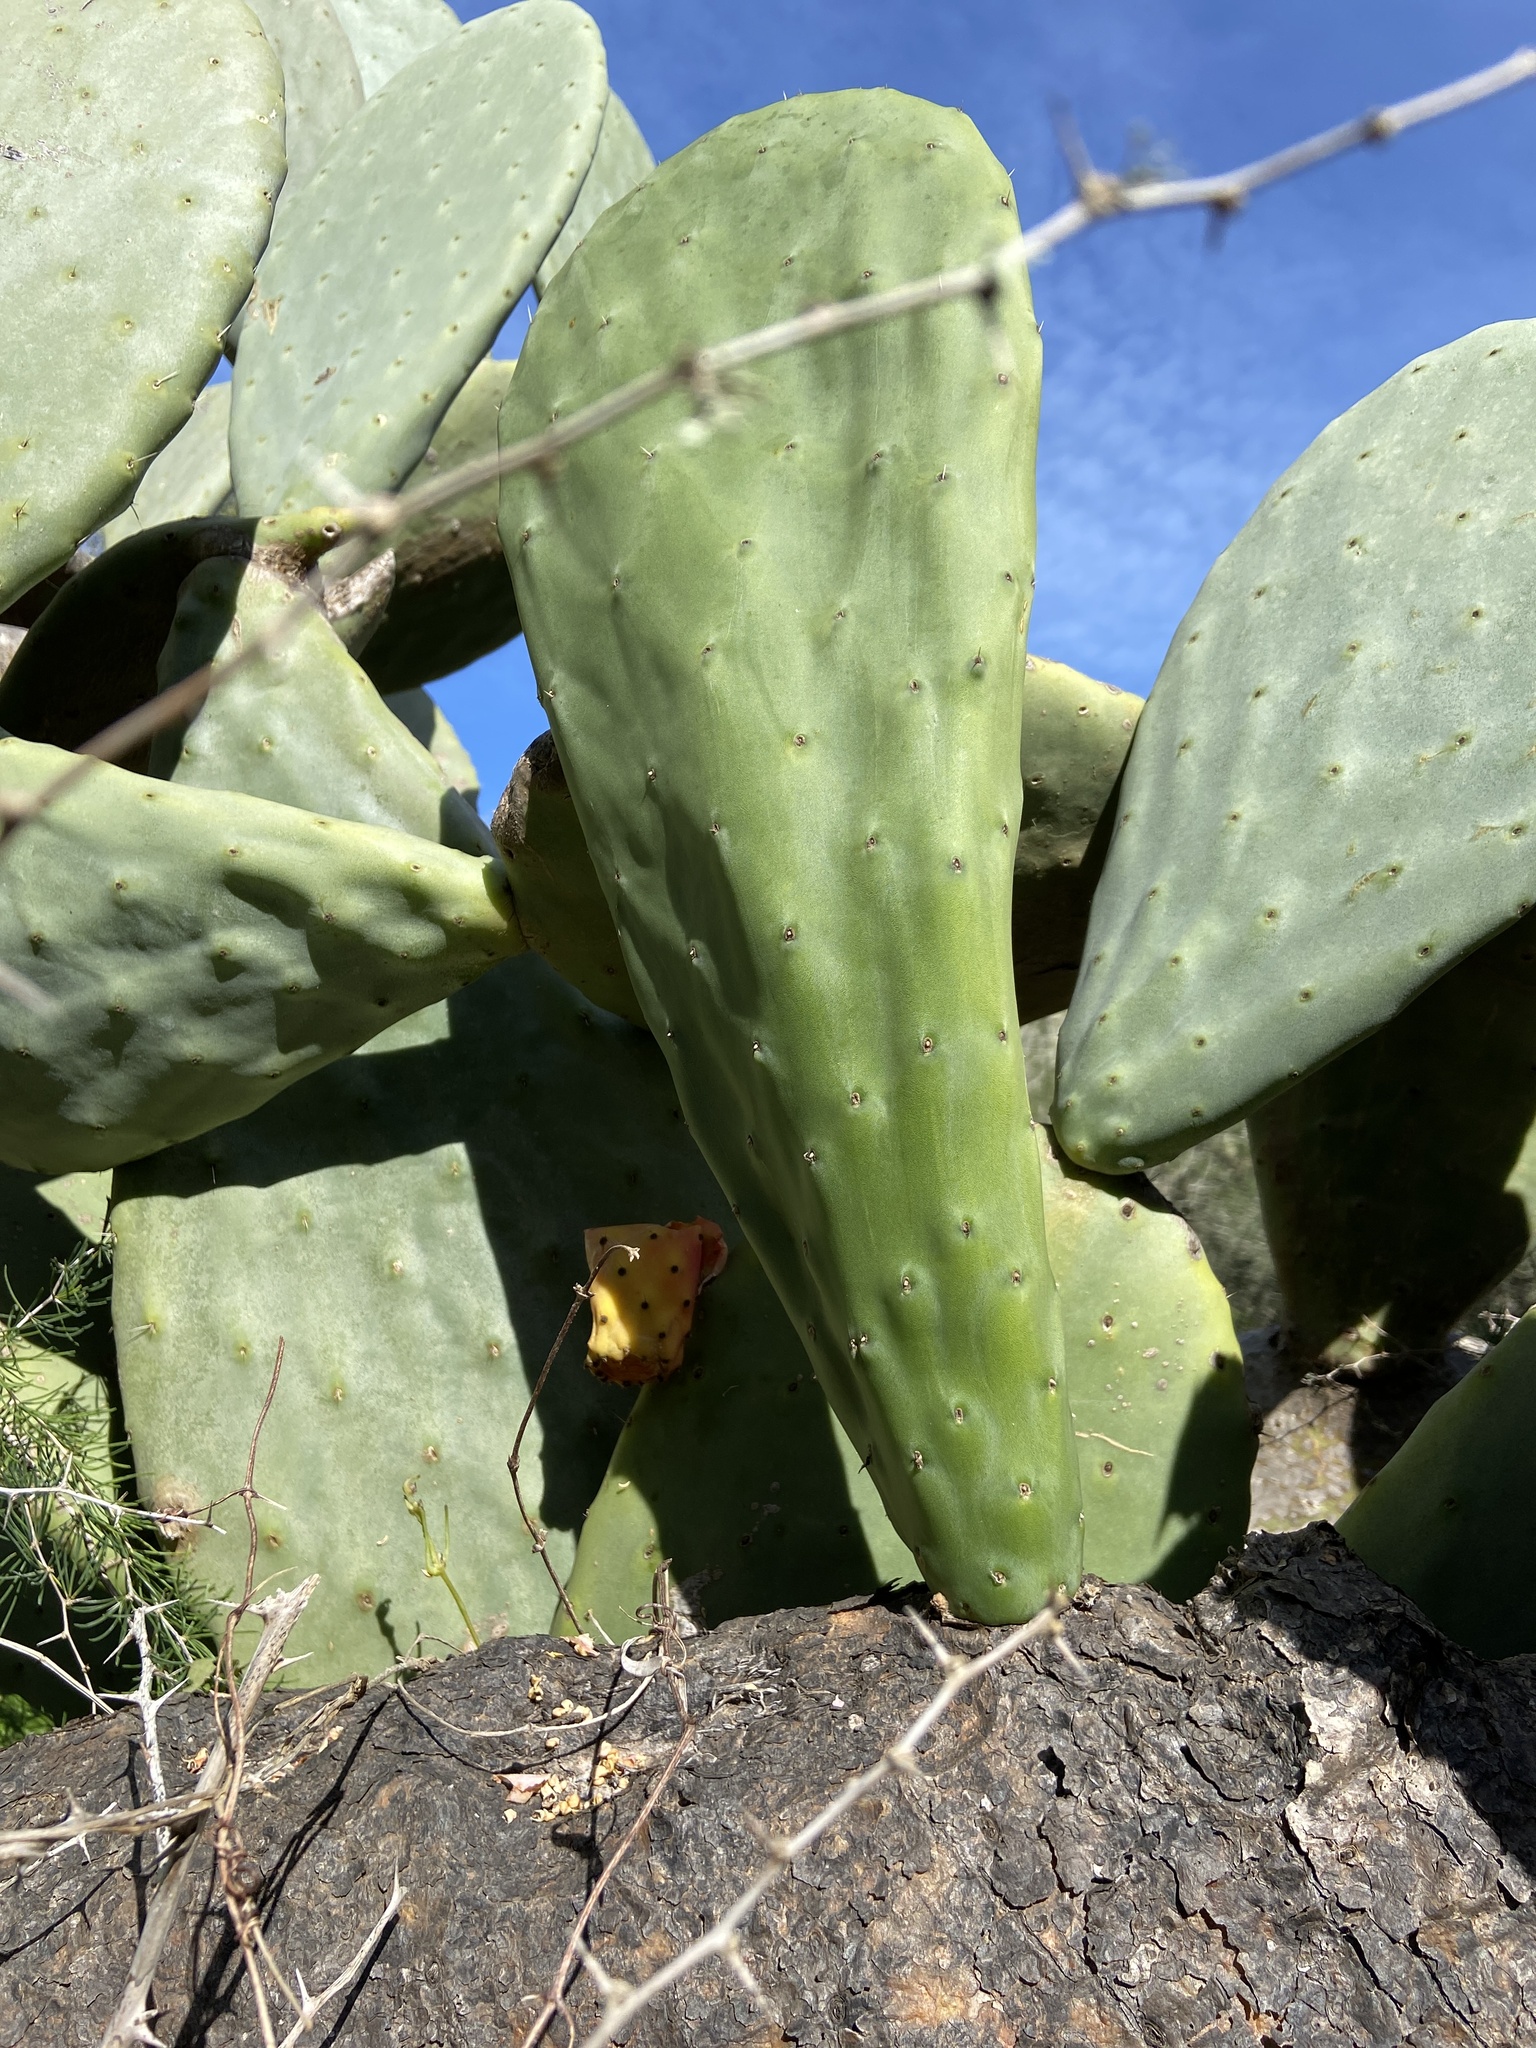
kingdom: Plantae
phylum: Tracheophyta
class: Magnoliopsida
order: Caryophyllales
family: Cactaceae
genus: Opuntia
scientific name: Opuntia ficus-indica
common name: Barbary fig
